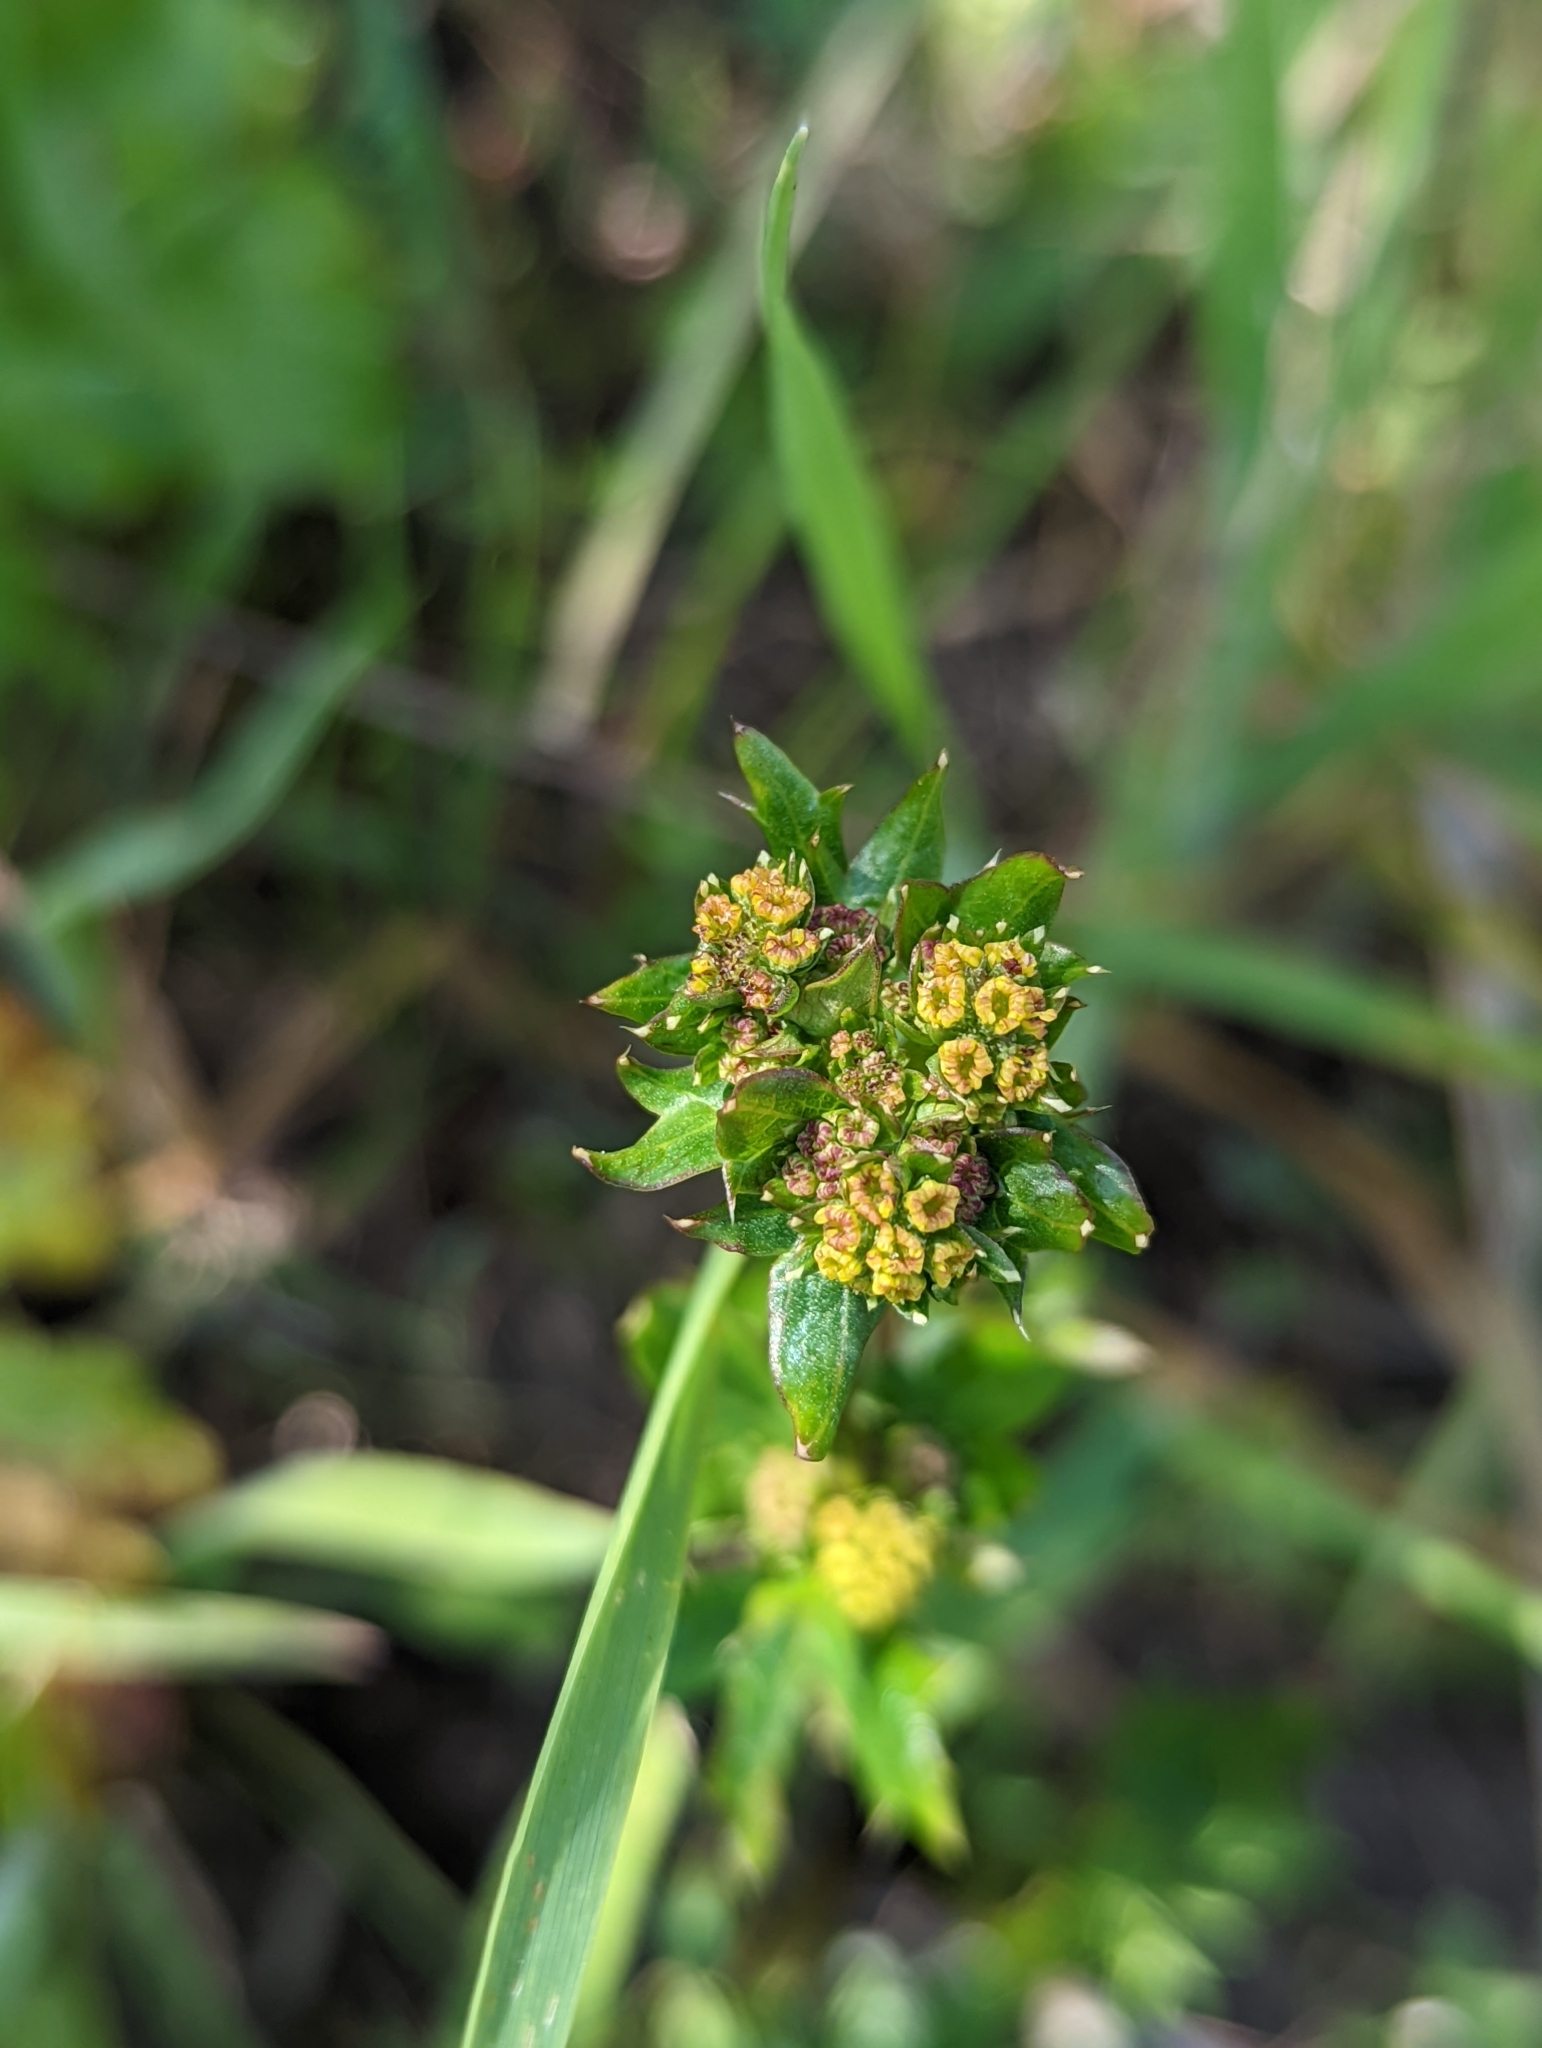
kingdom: Plantae
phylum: Tracheophyta
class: Magnoliopsida
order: Apiales
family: Apiaceae
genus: Sanicula
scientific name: Sanicula crassicaulis
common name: Western snakeroot
